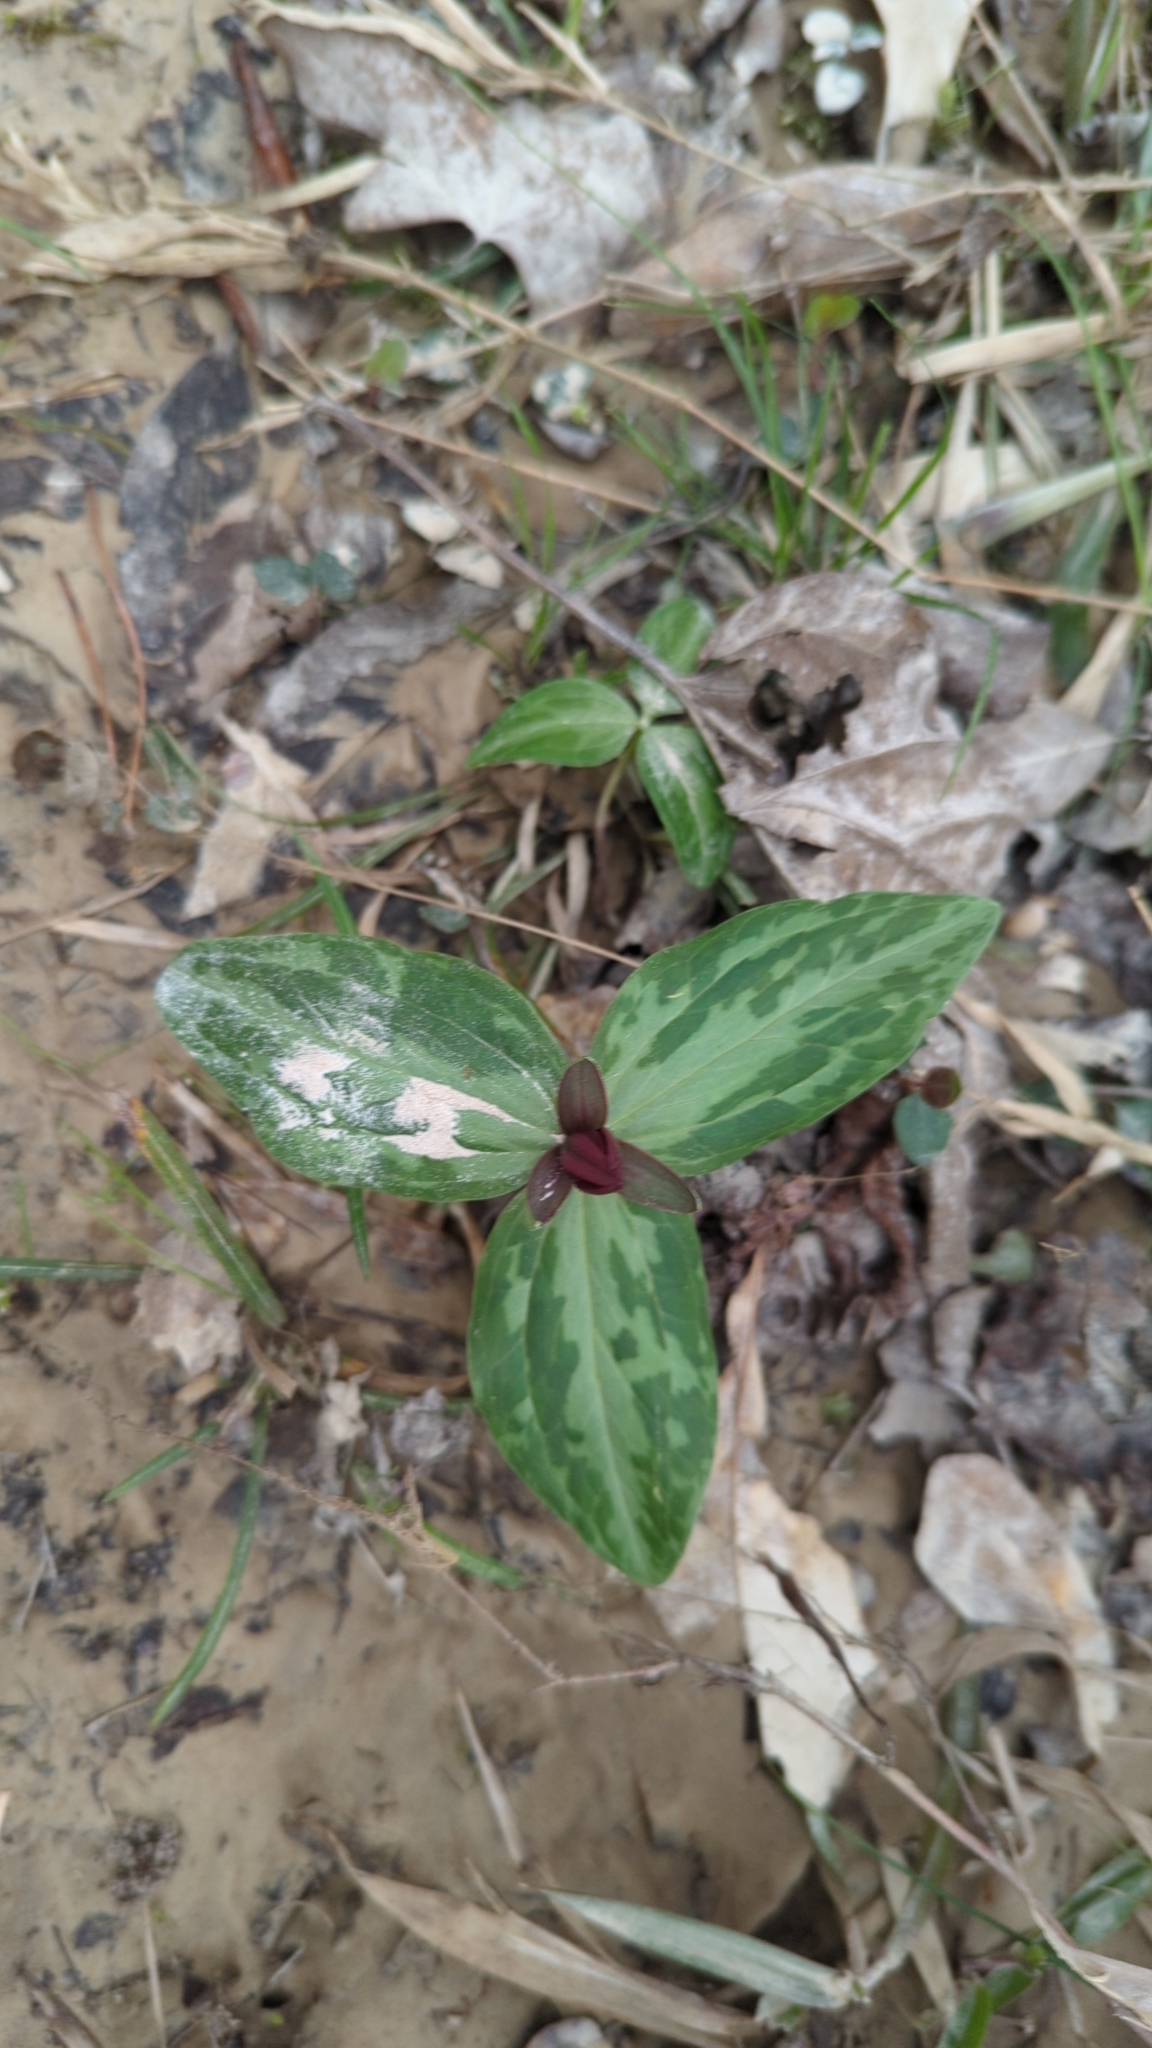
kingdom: Plantae
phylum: Tracheophyta
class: Liliopsida
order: Liliales
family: Melanthiaceae
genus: Trillium
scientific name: Trillium foetidissimum
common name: Mississippi river trillium
